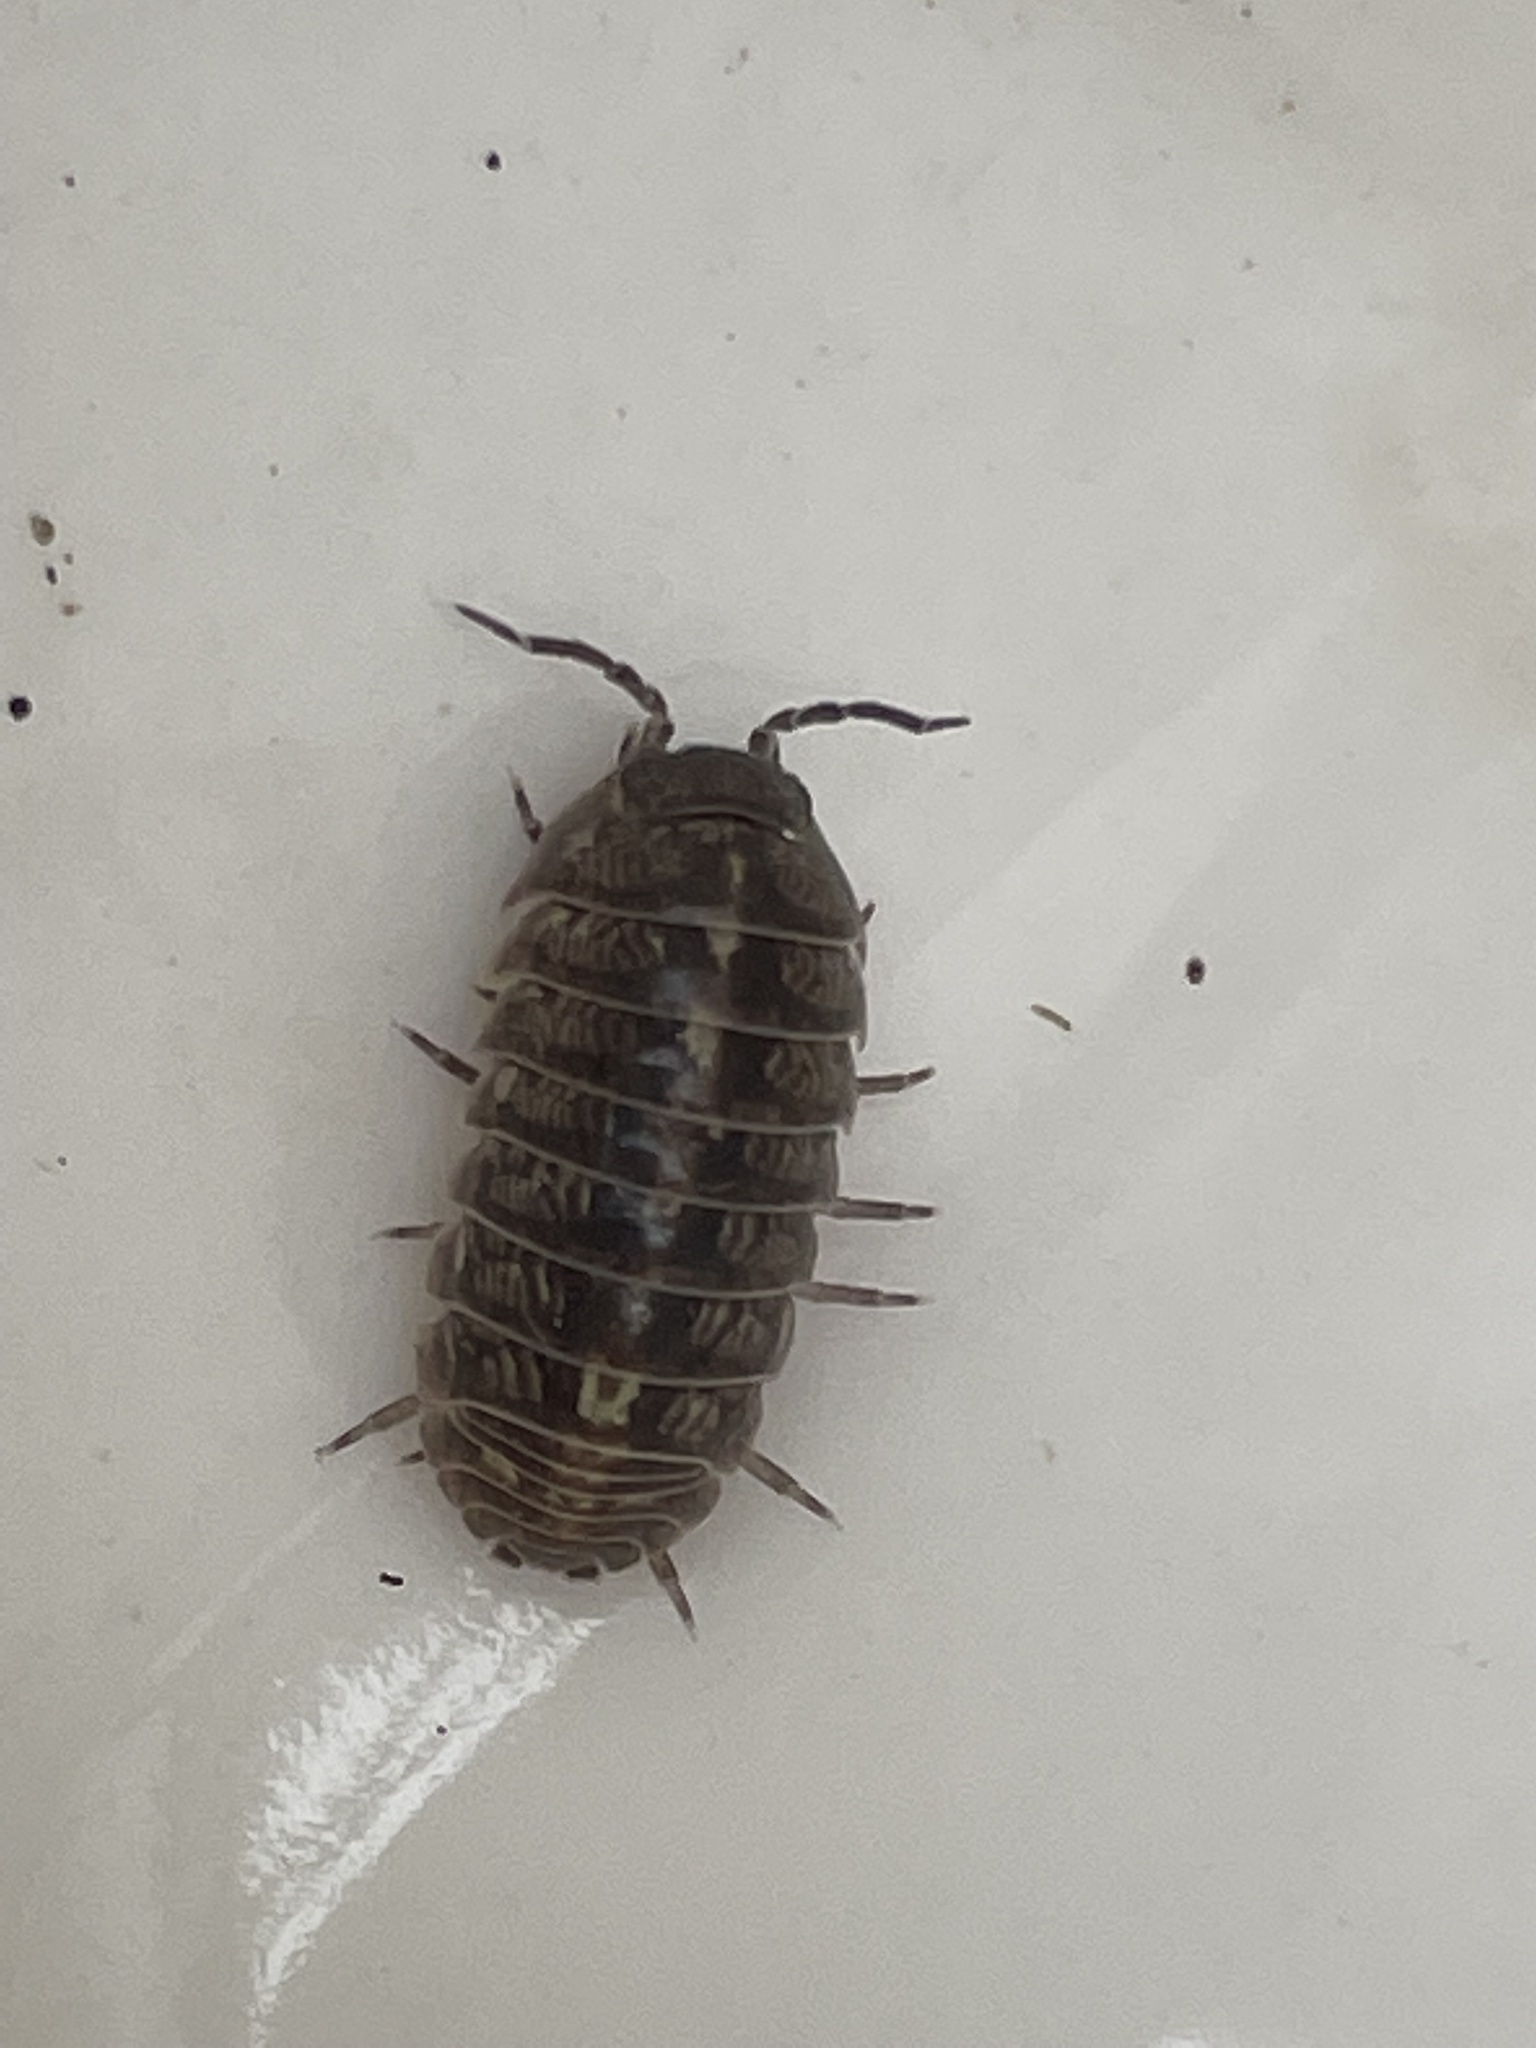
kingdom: Animalia
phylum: Arthropoda
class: Malacostraca
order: Isopoda
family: Armadillidiidae
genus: Armadillidium
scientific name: Armadillidium vulgare
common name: Common pill woodlouse
